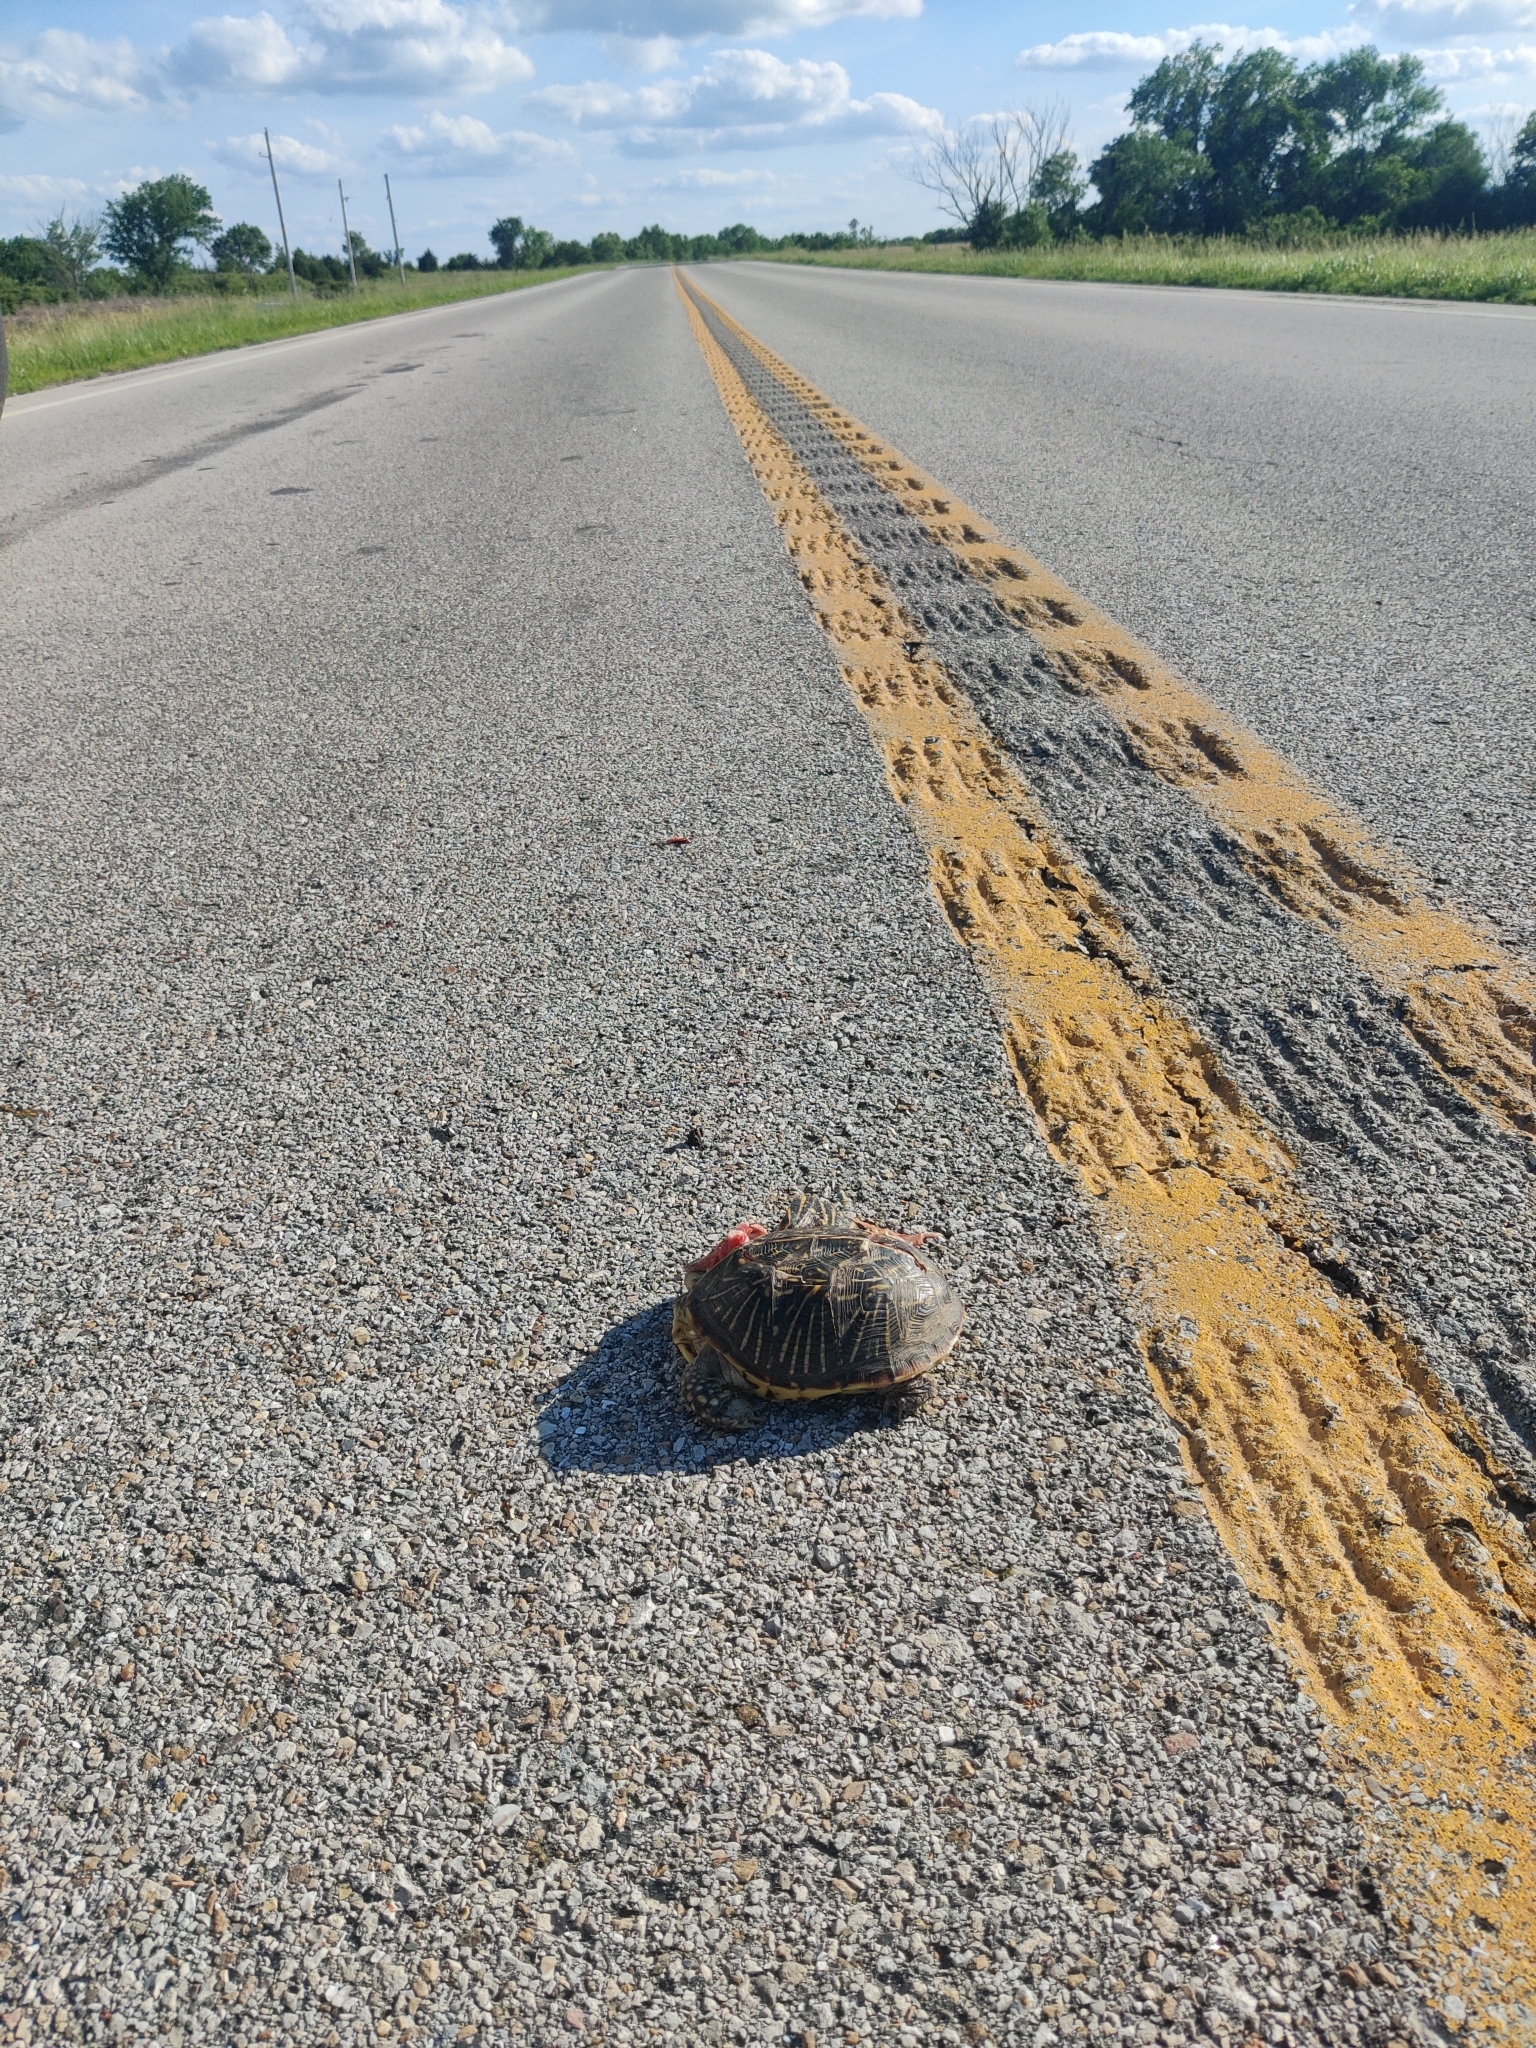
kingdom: Animalia
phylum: Chordata
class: Testudines
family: Emydidae
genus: Terrapene
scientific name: Terrapene ornata
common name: Western box turtle
